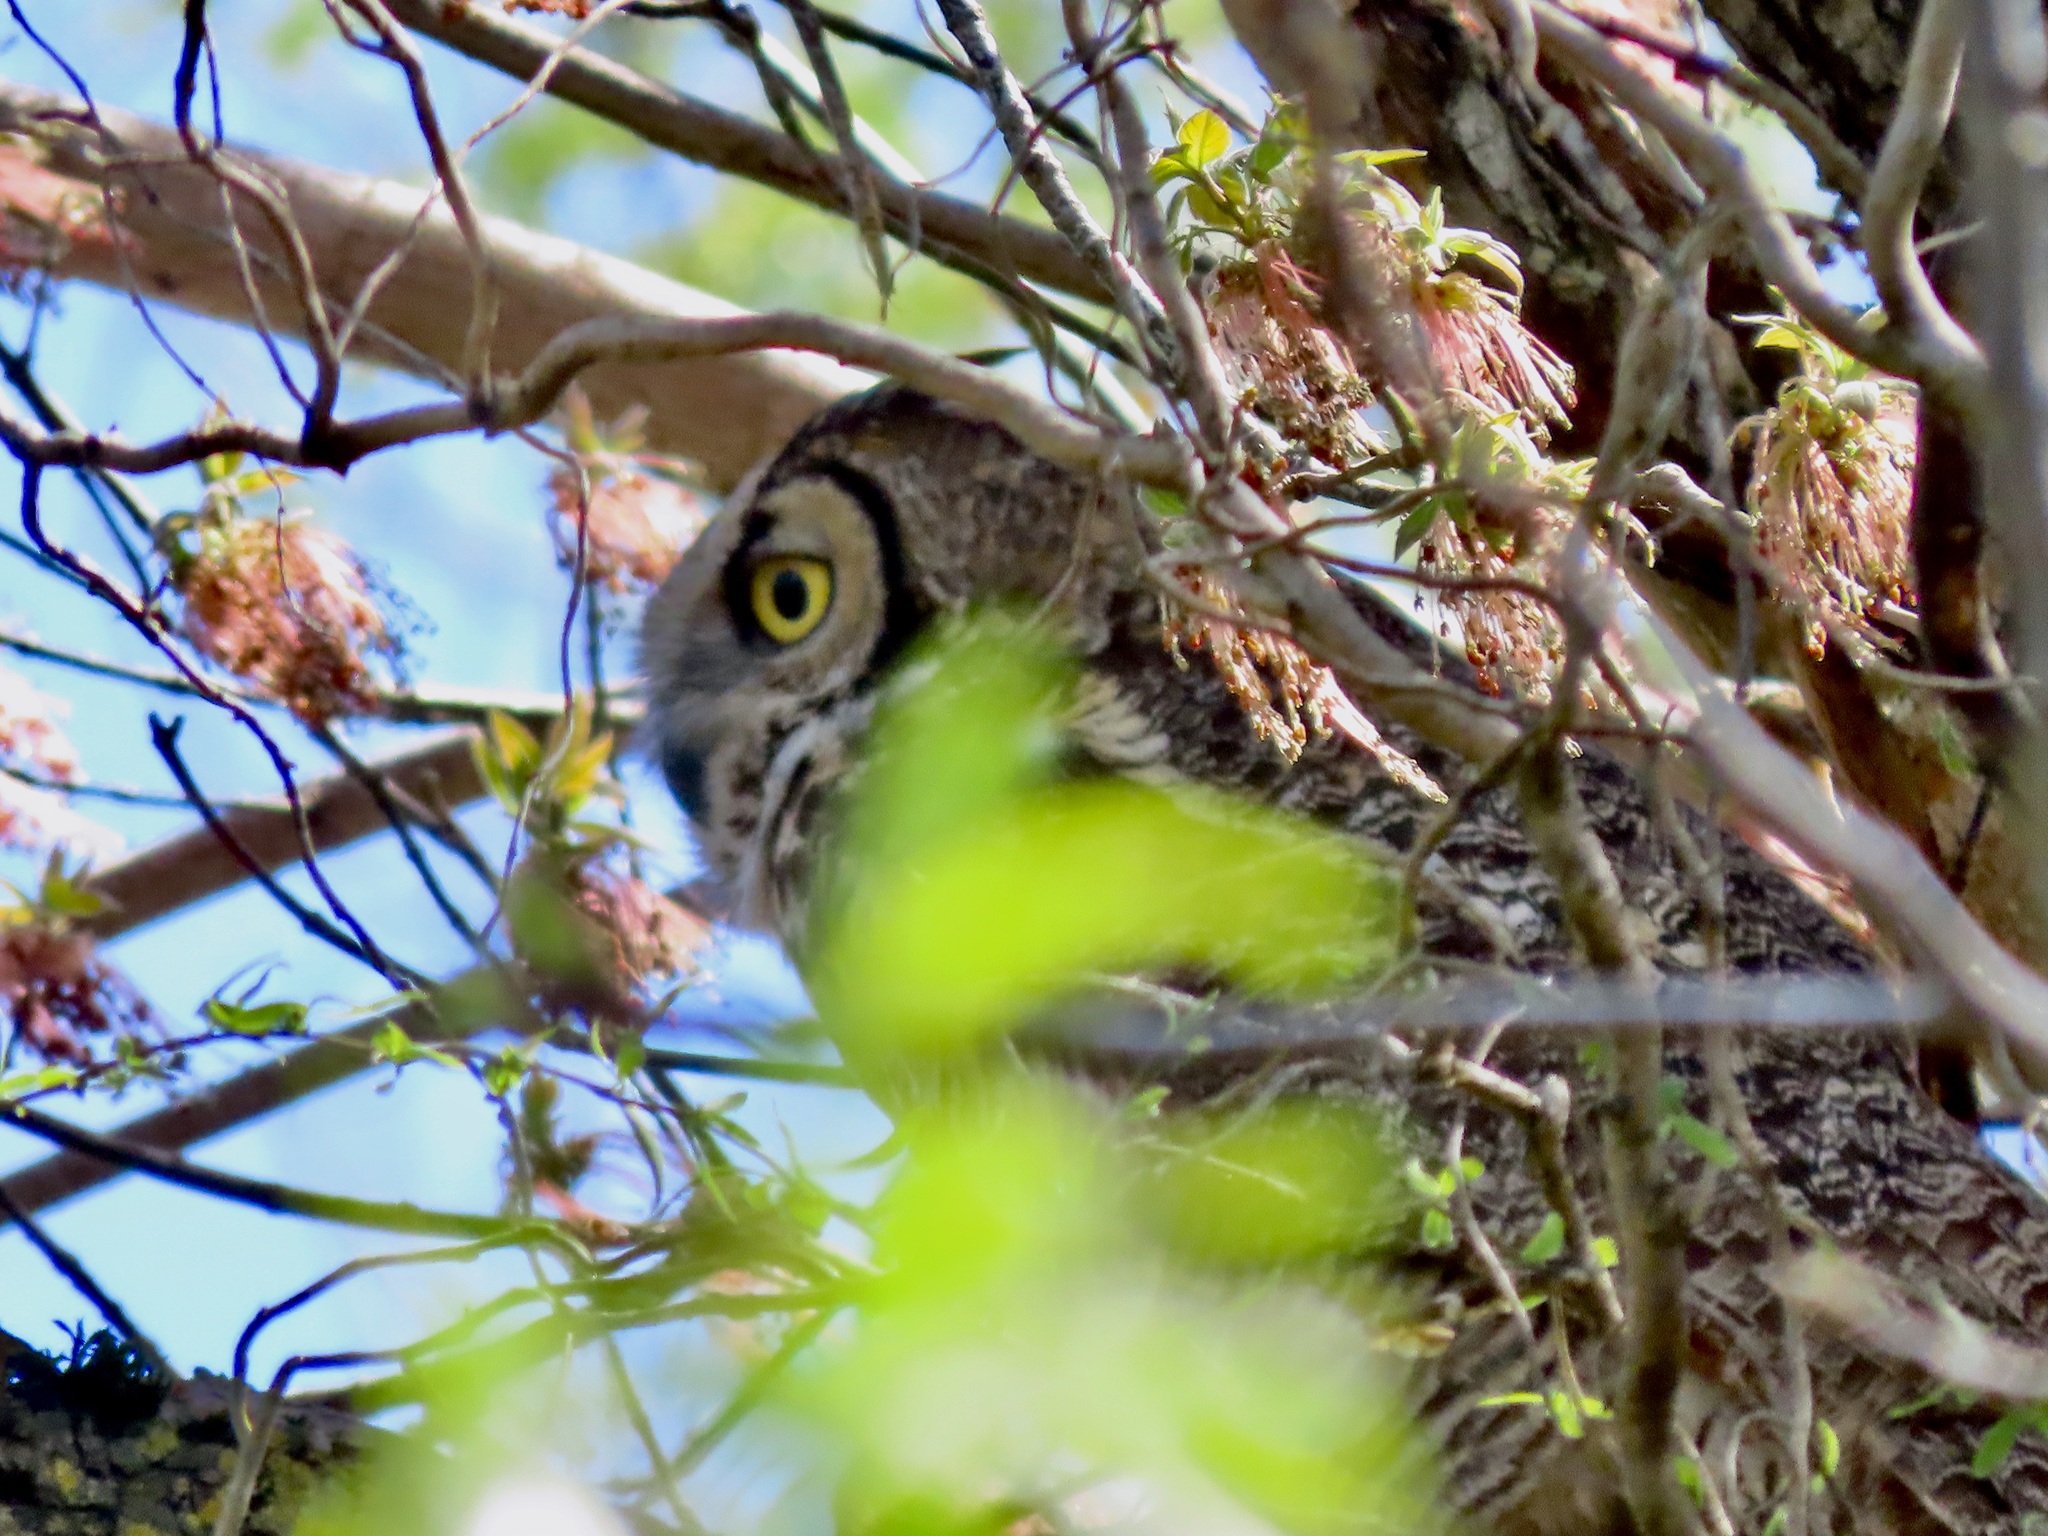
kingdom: Animalia
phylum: Chordata
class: Aves
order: Strigiformes
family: Strigidae
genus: Bubo
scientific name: Bubo virginianus
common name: Great horned owl
